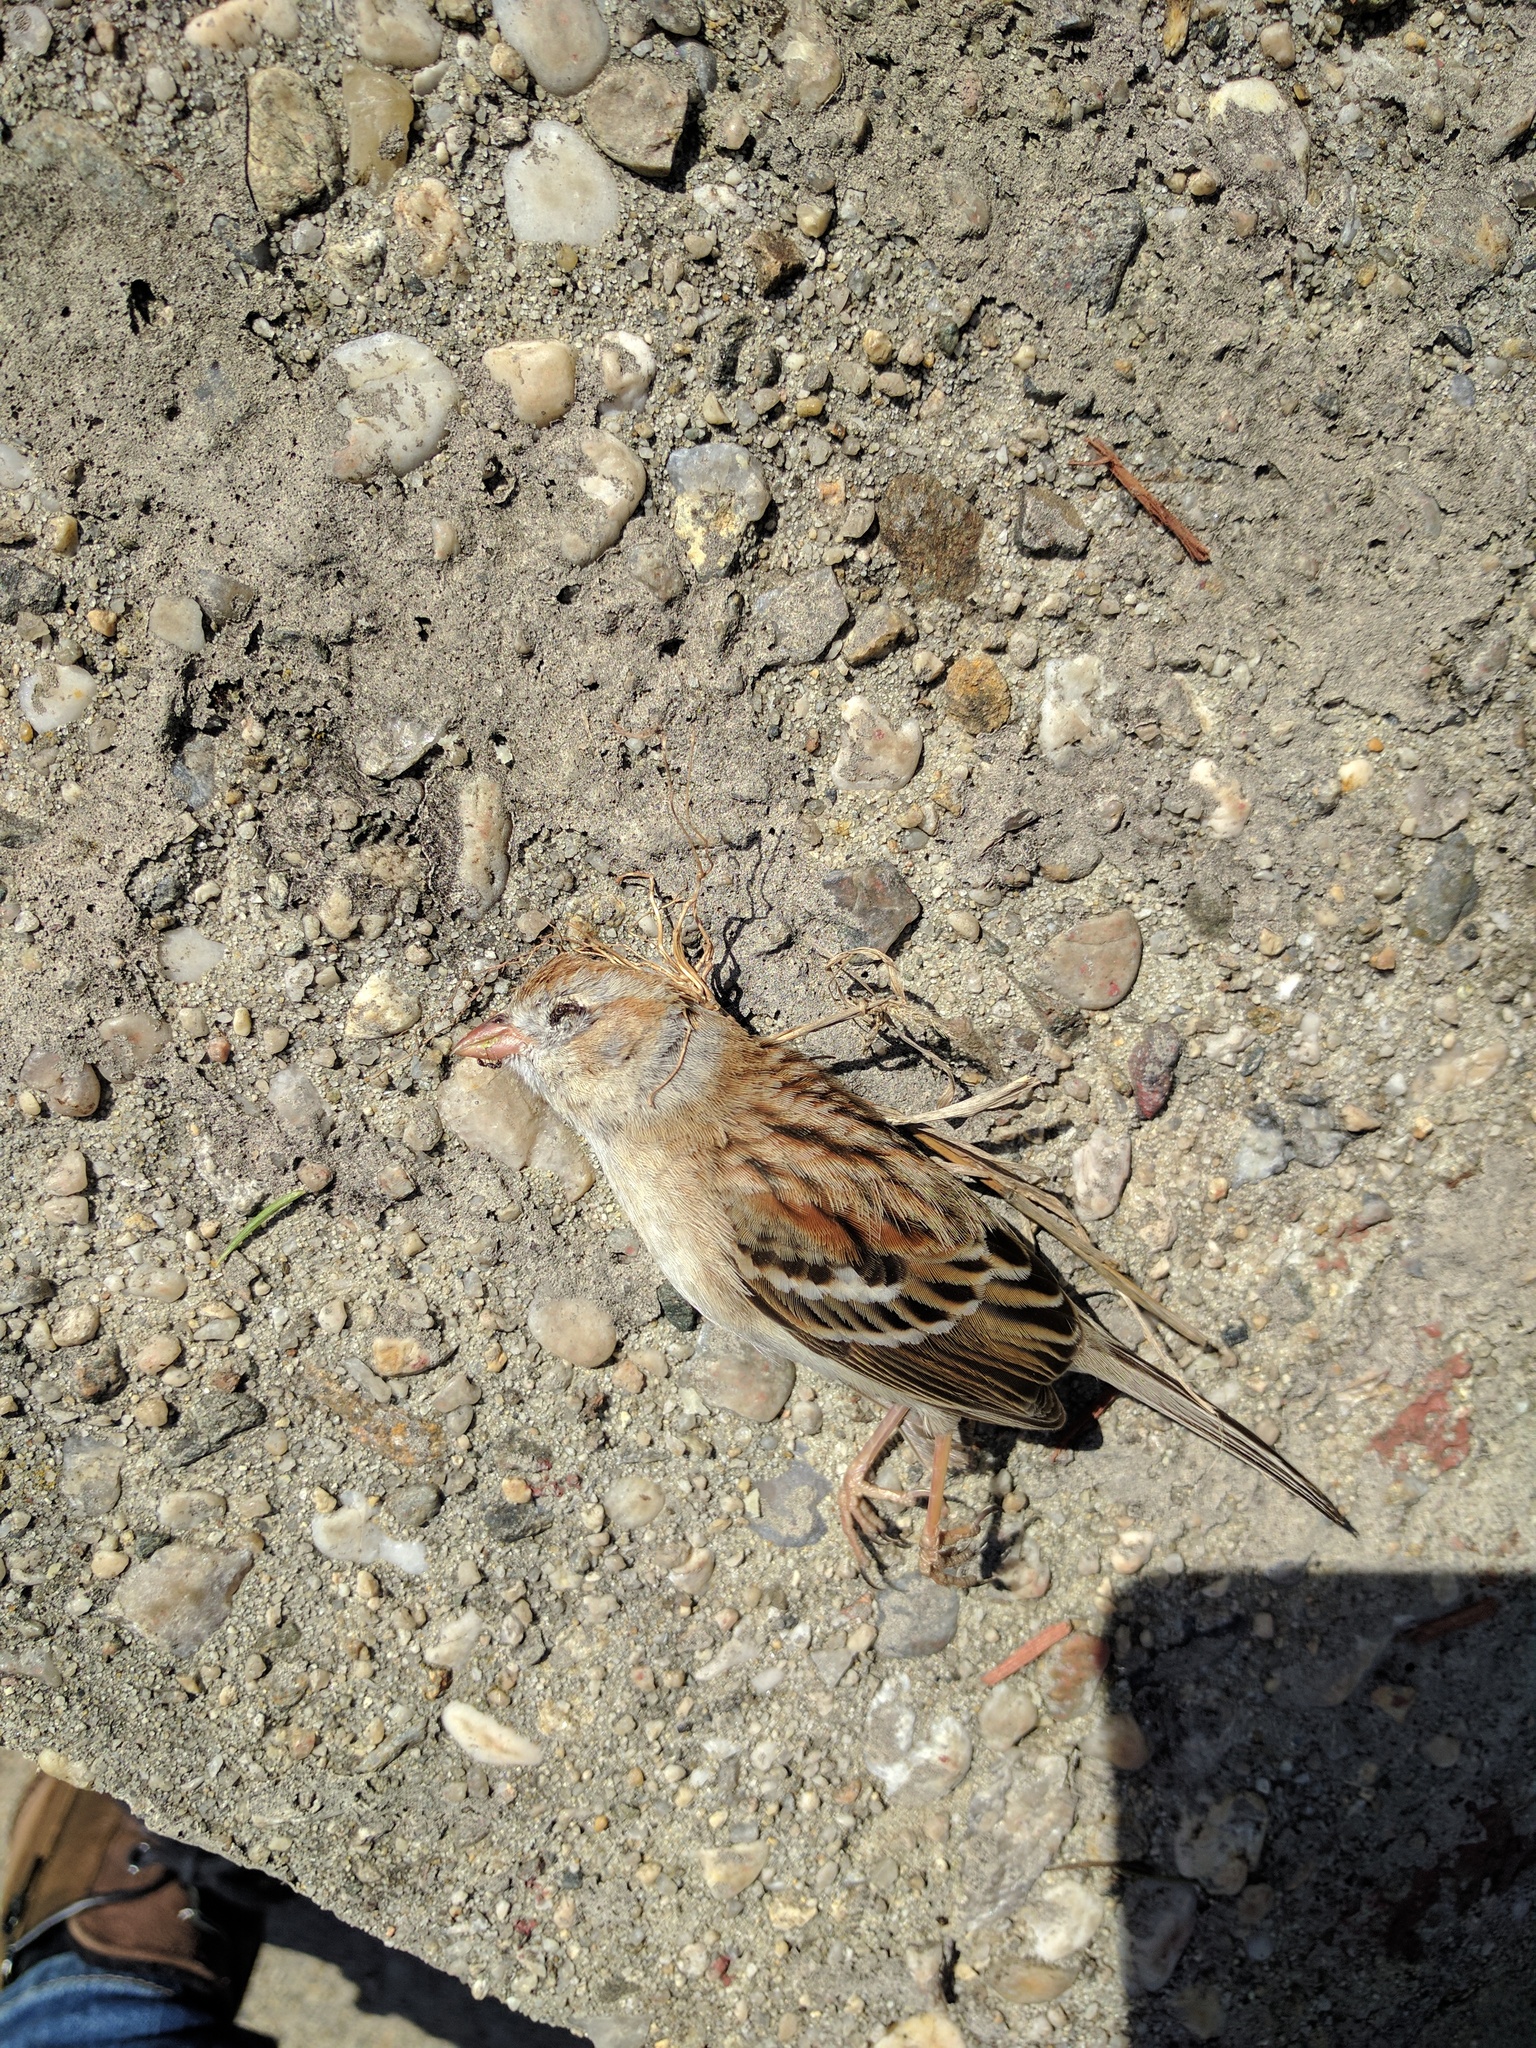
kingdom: Animalia
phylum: Chordata
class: Aves
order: Passeriformes
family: Passerellidae
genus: Spizella
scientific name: Spizella pusilla
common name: Field sparrow
